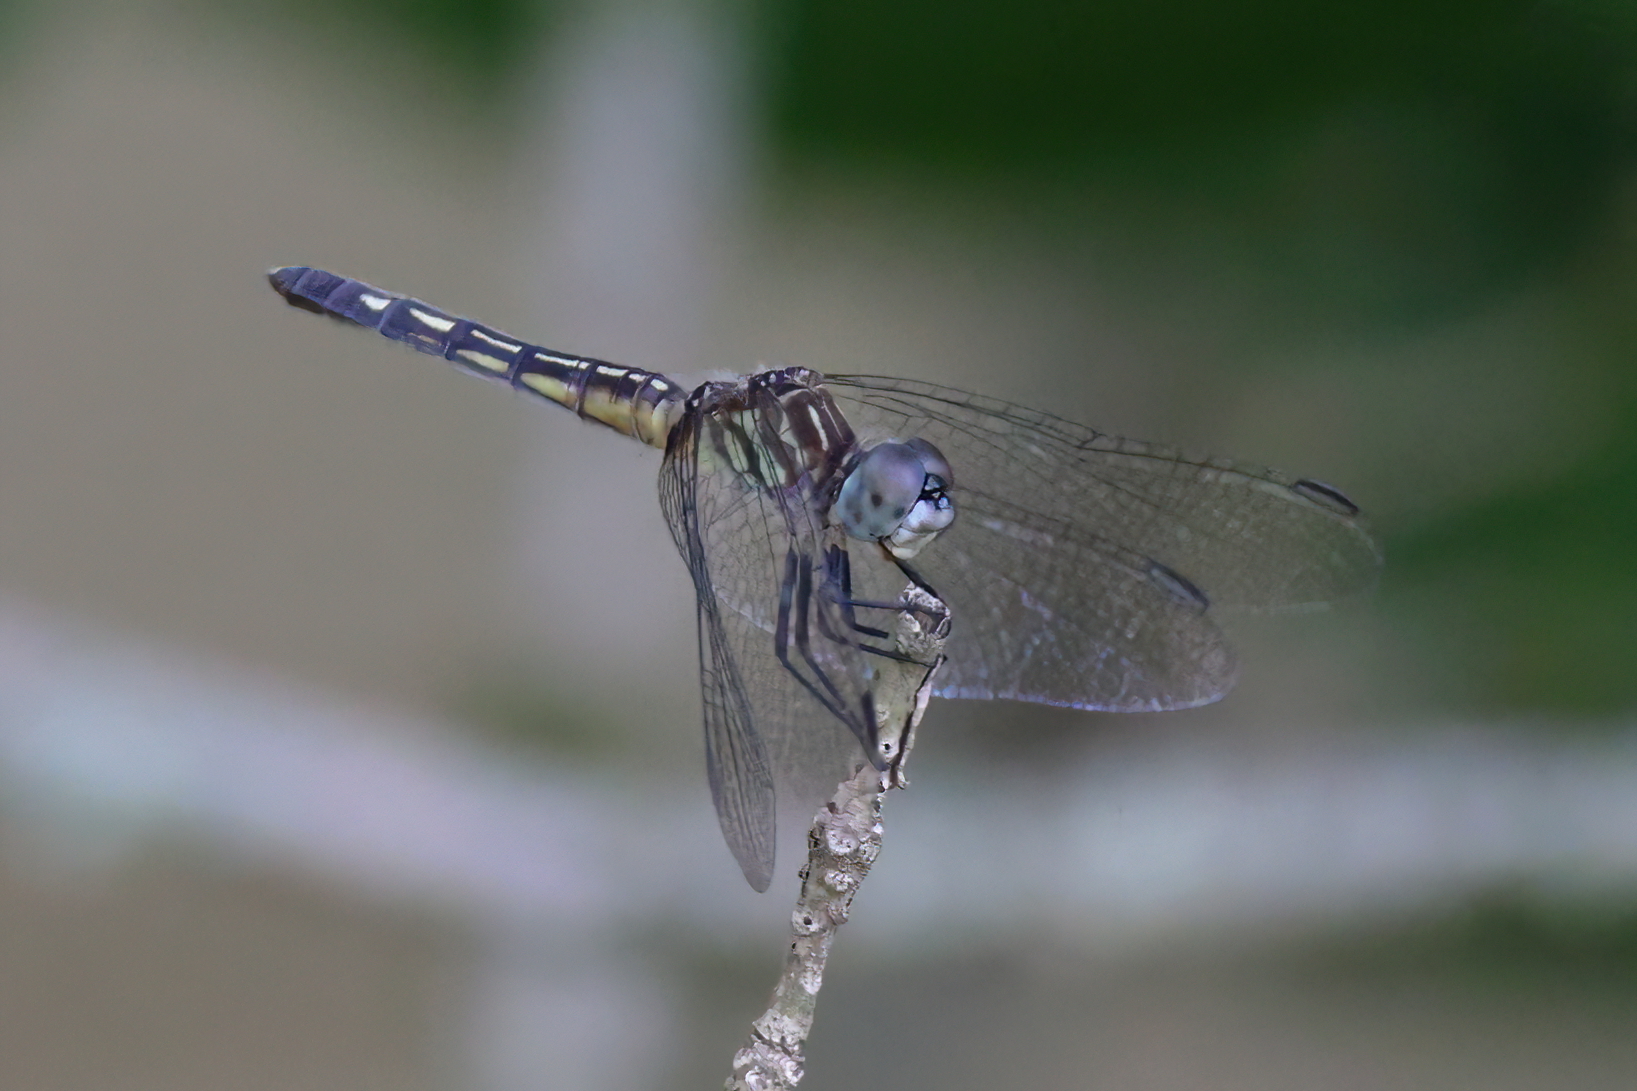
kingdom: Animalia
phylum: Arthropoda
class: Insecta
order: Odonata
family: Libellulidae
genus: Pachydiplax
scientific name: Pachydiplax longipennis
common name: Blue dasher
